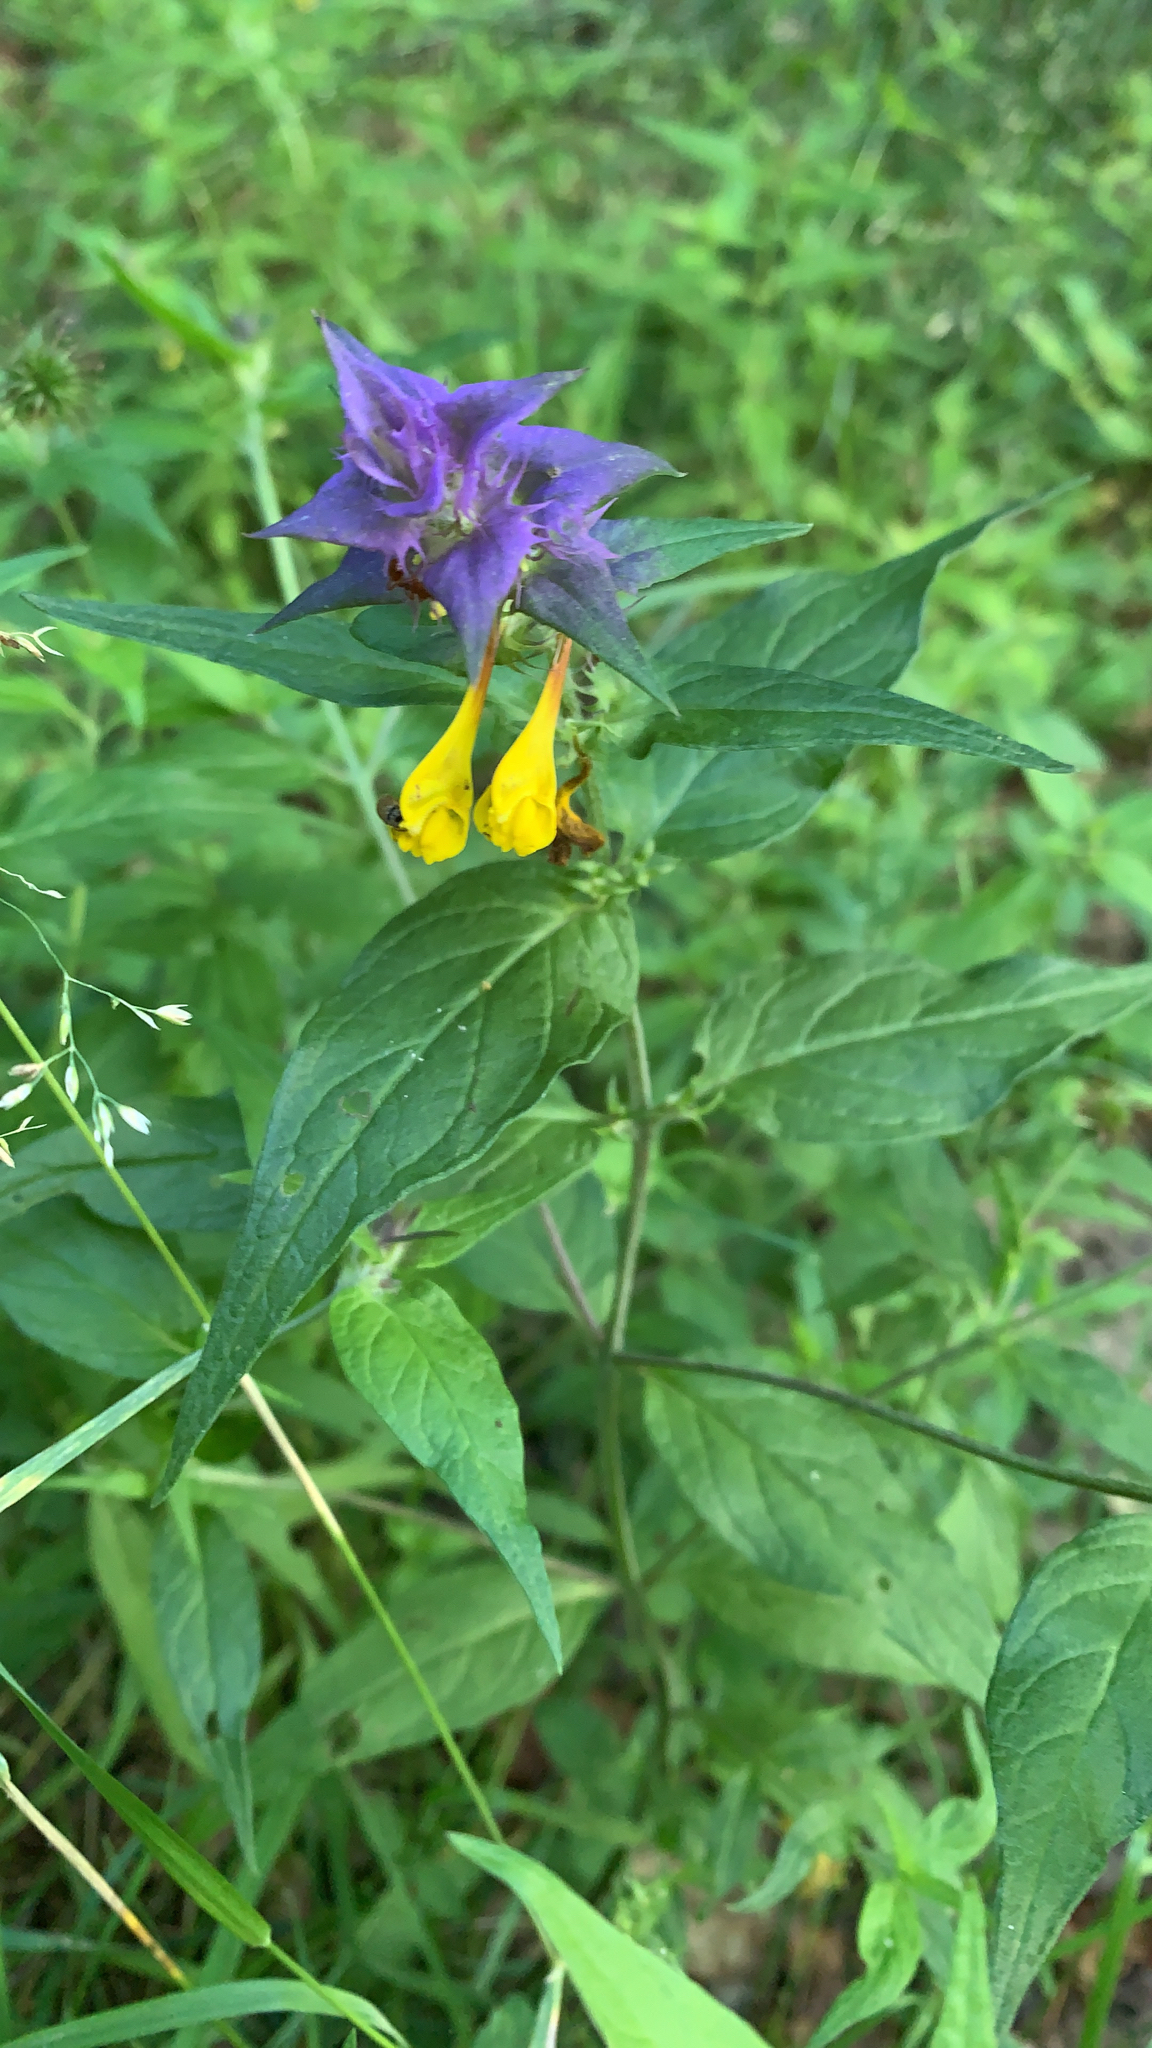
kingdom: Plantae
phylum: Tracheophyta
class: Magnoliopsida
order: Lamiales
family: Orobanchaceae
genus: Melampyrum
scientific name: Melampyrum nemorosum
